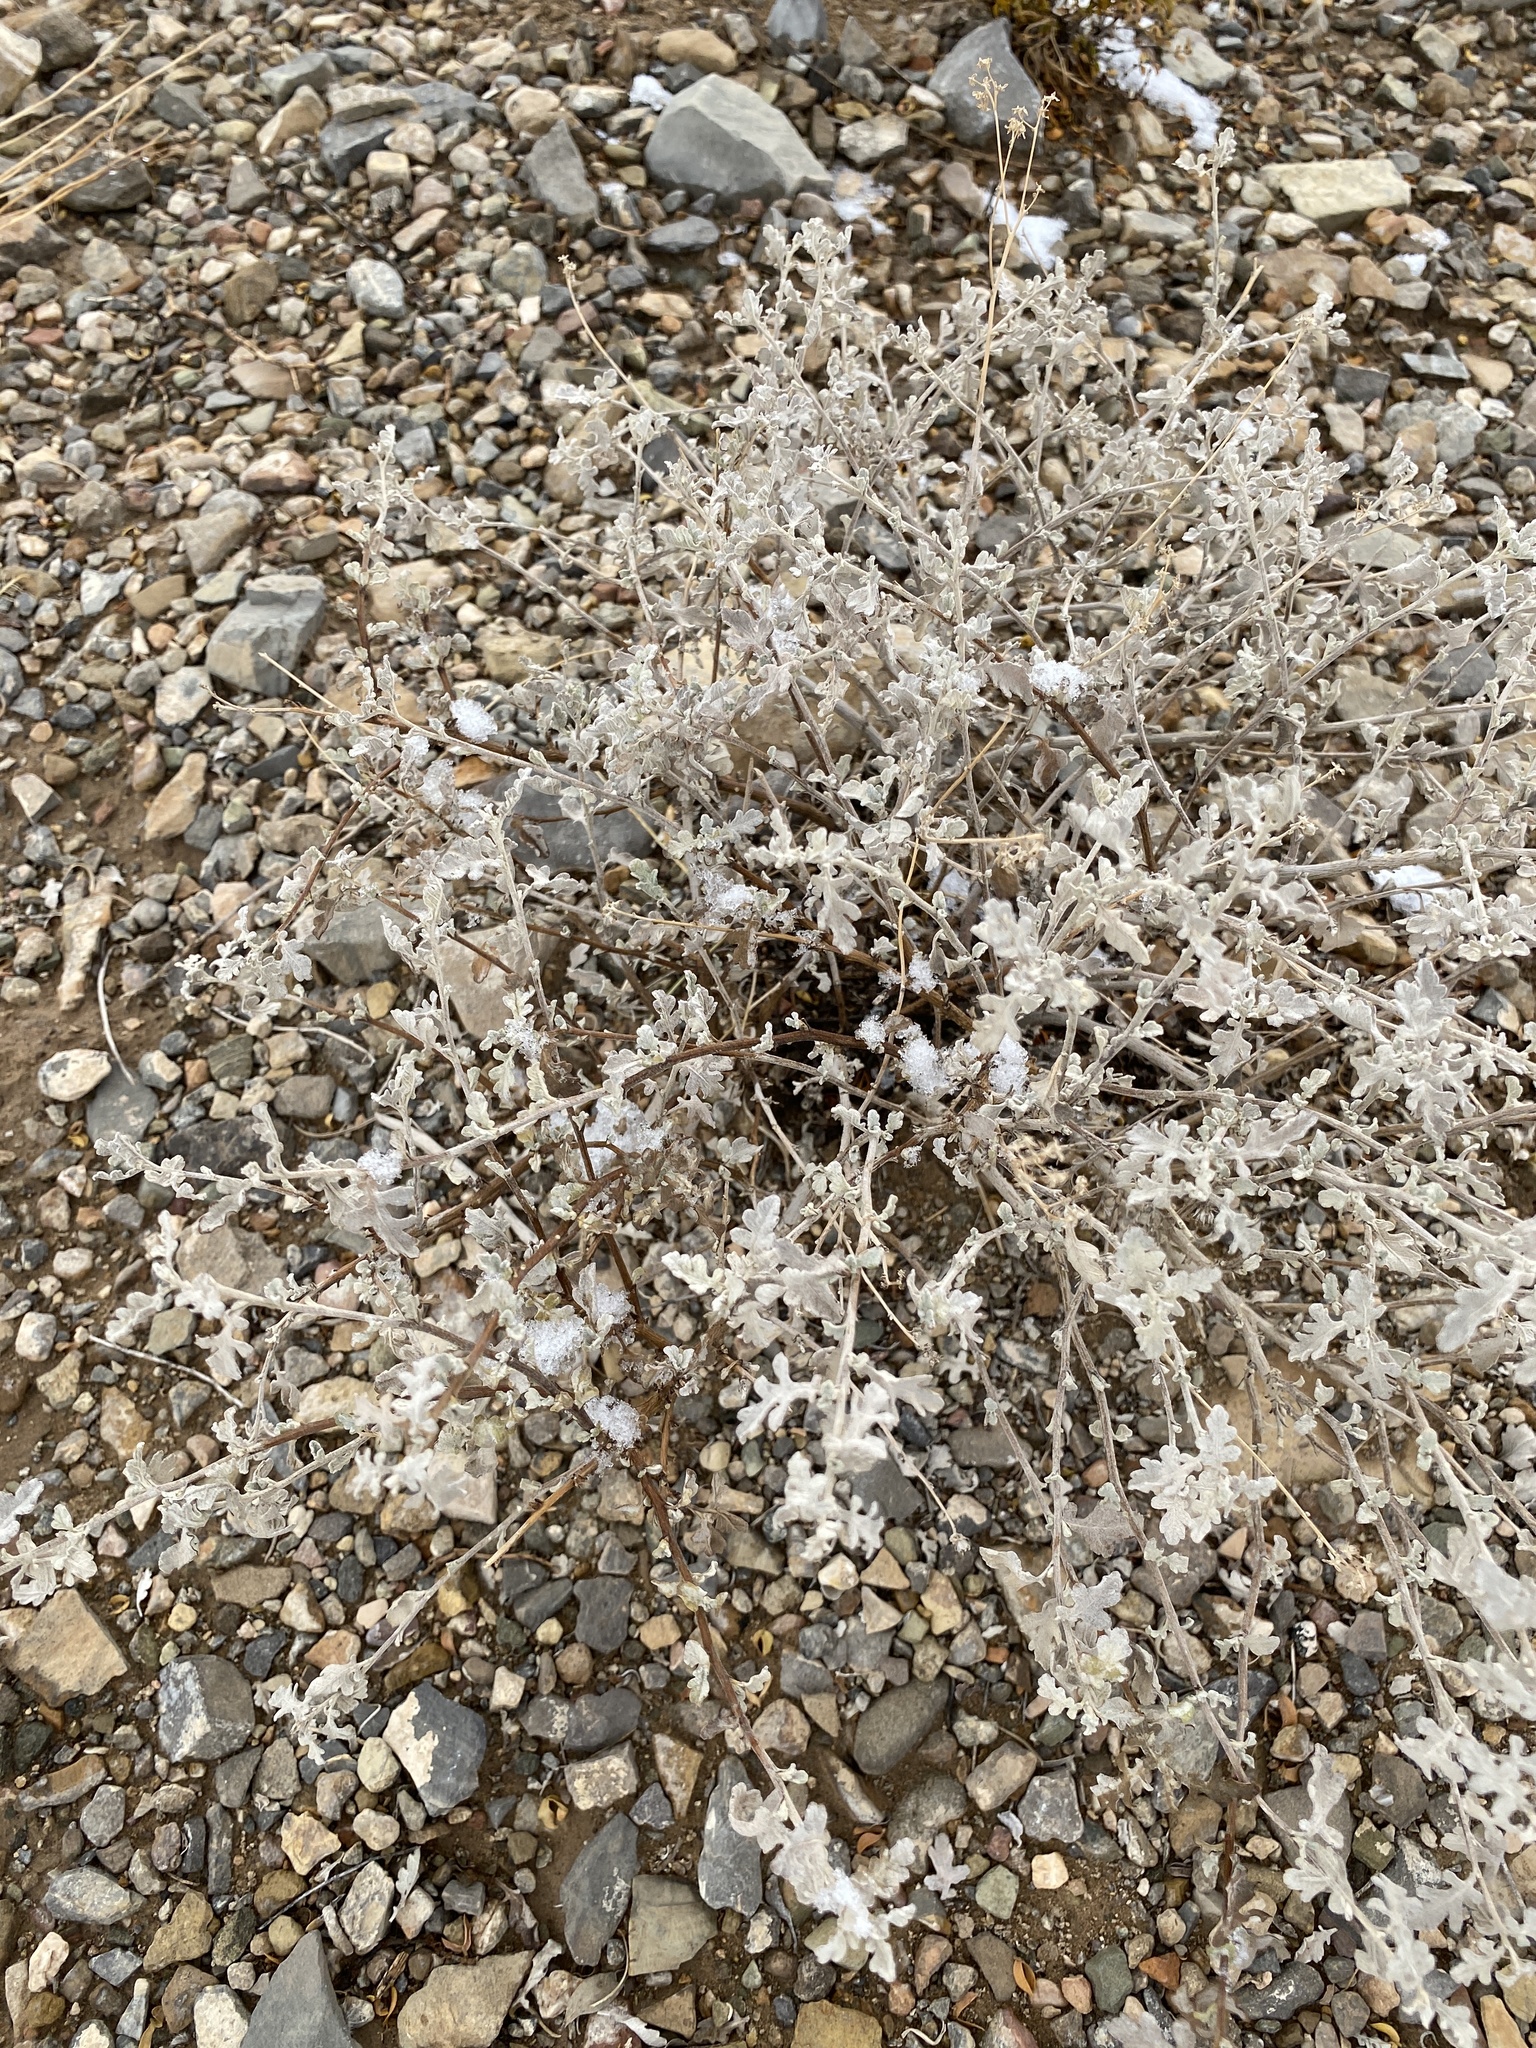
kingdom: Plantae
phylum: Tracheophyta
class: Magnoliopsida
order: Asterales
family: Asteraceae
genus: Parthenium
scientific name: Parthenium incanum
